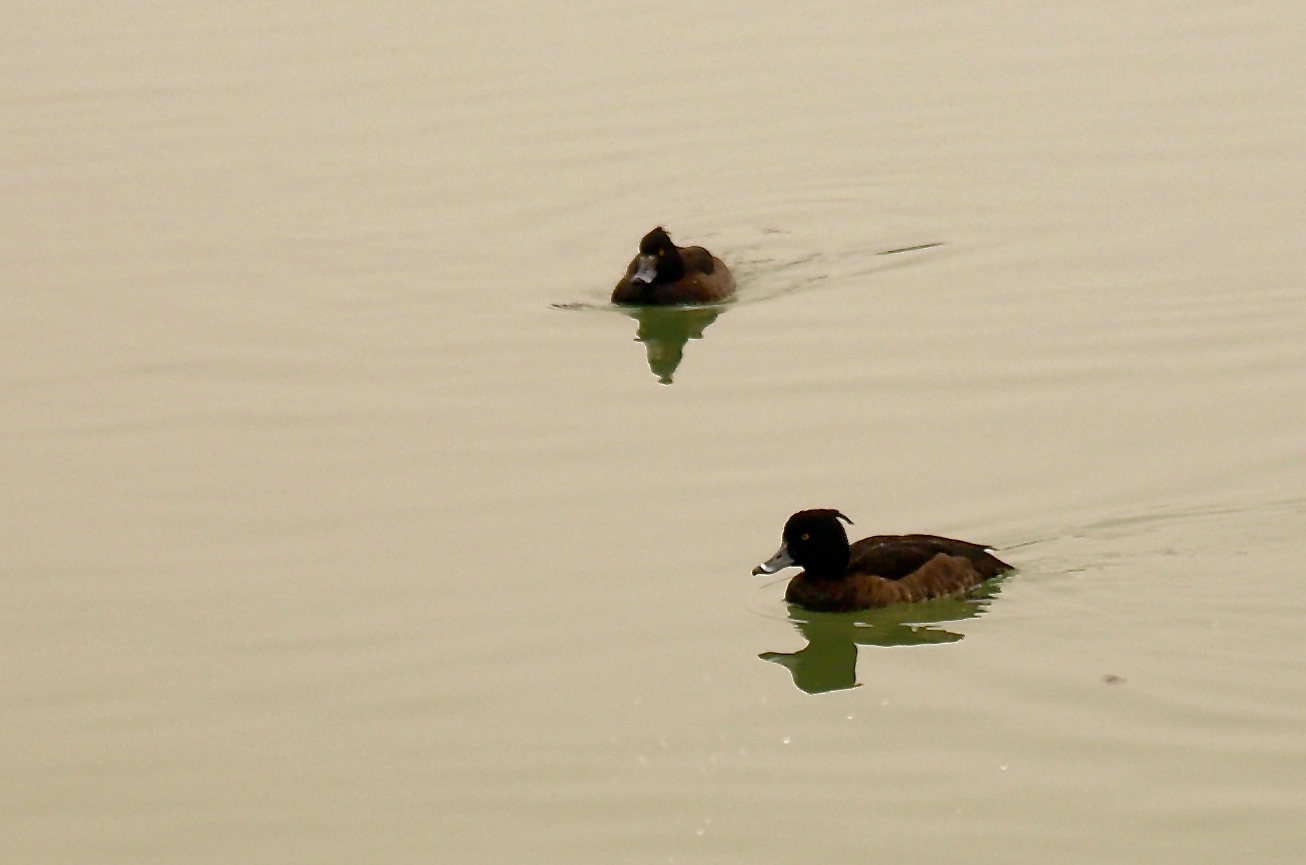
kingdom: Animalia
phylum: Chordata
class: Aves
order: Anseriformes
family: Anatidae
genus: Aythya
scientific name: Aythya fuligula
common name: Tufted duck
